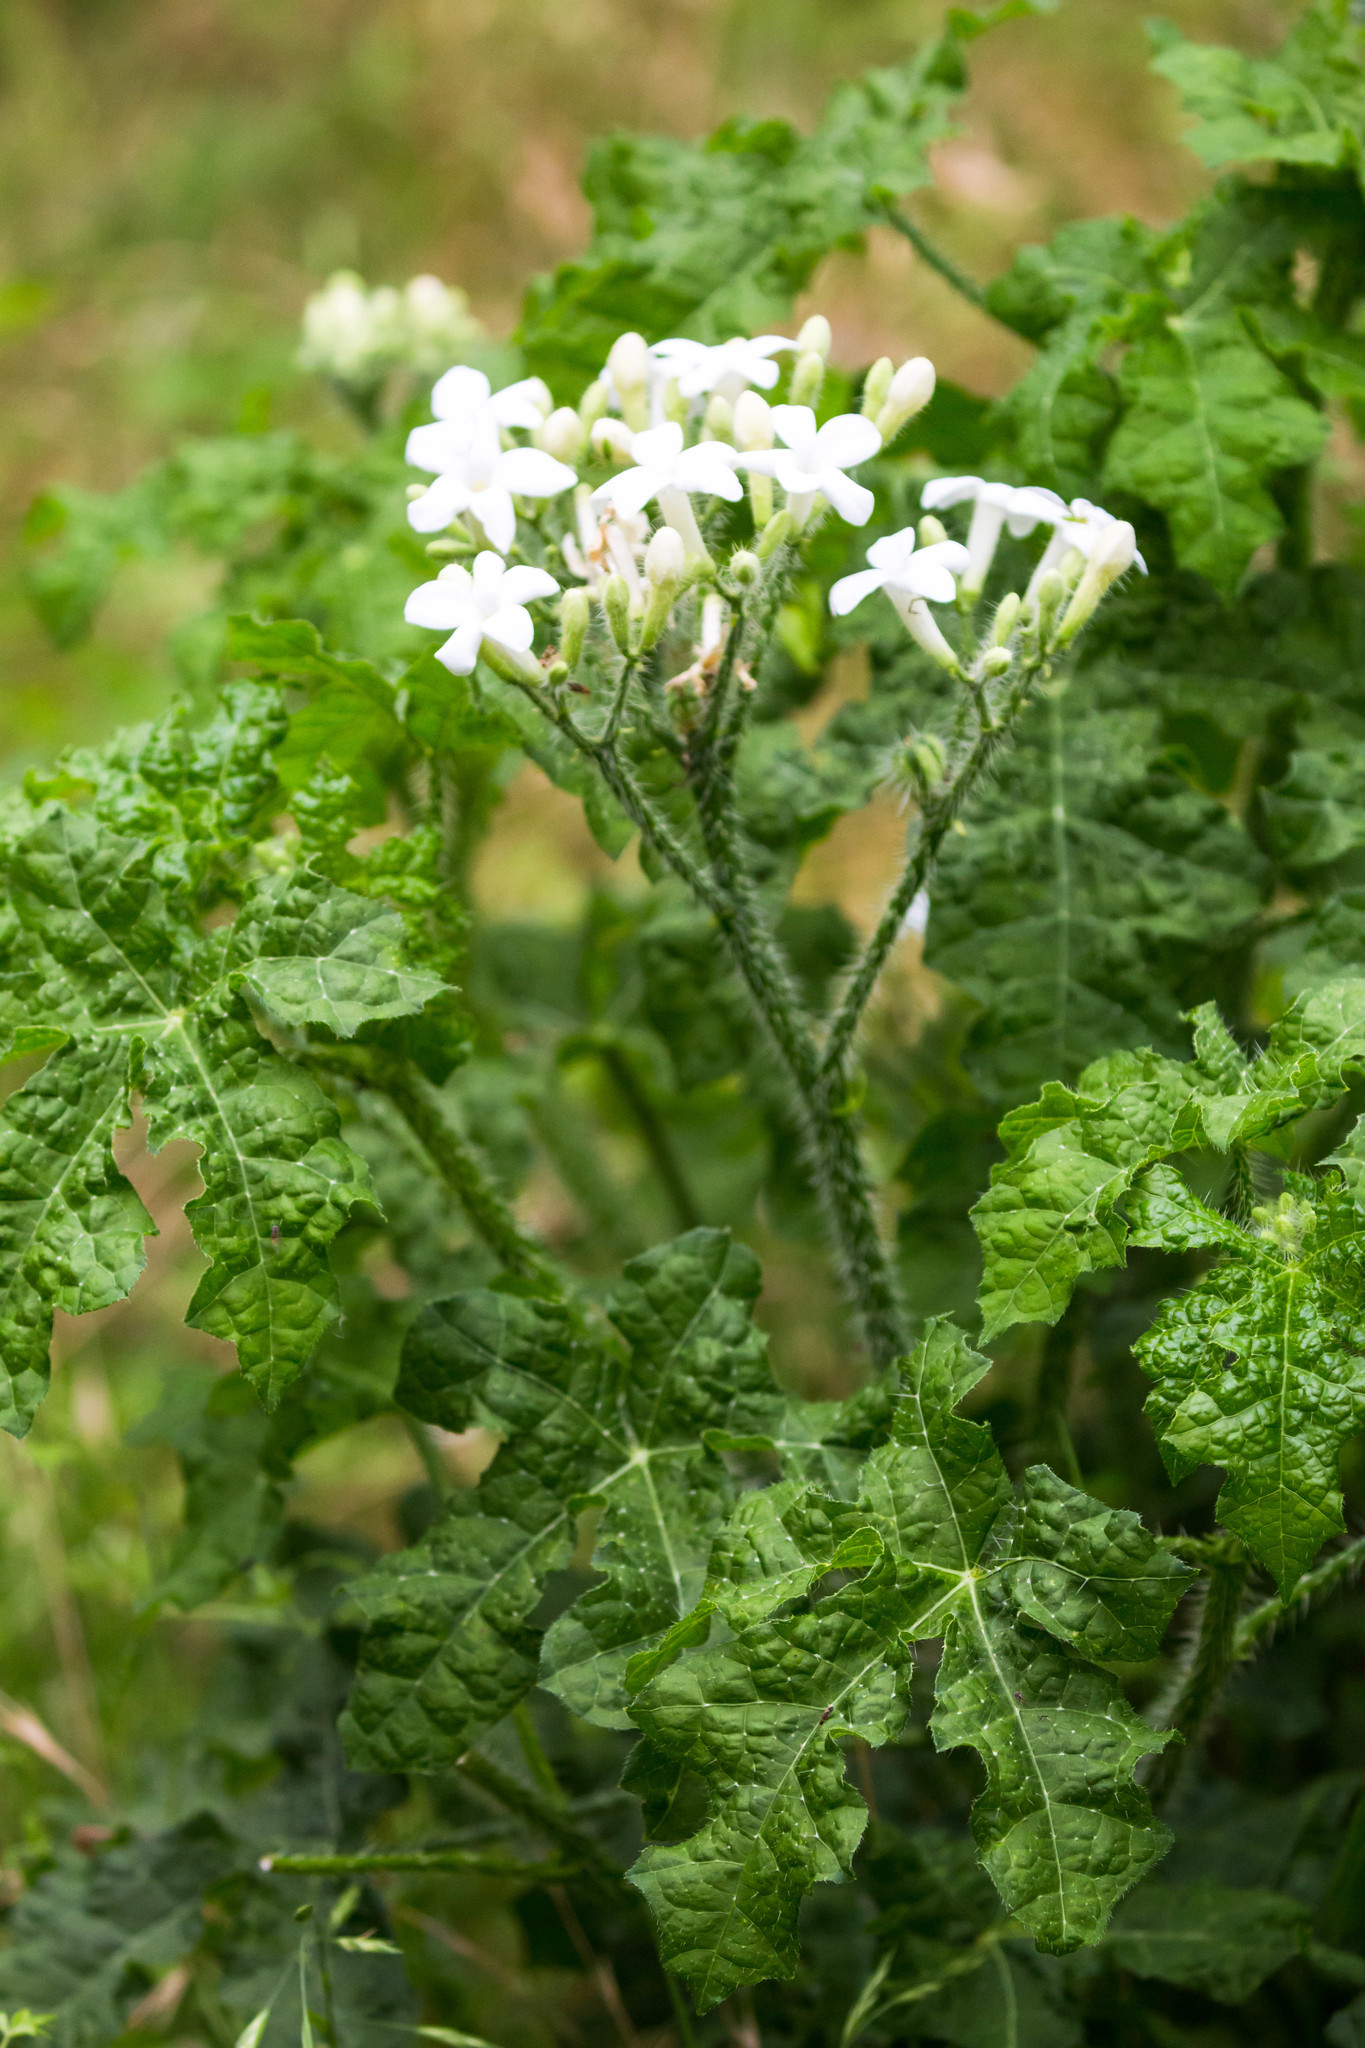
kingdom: Plantae
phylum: Tracheophyta
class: Magnoliopsida
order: Malpighiales
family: Euphorbiaceae
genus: Cnidoscolus
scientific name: Cnidoscolus texanus
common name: Texas bull-nettle
